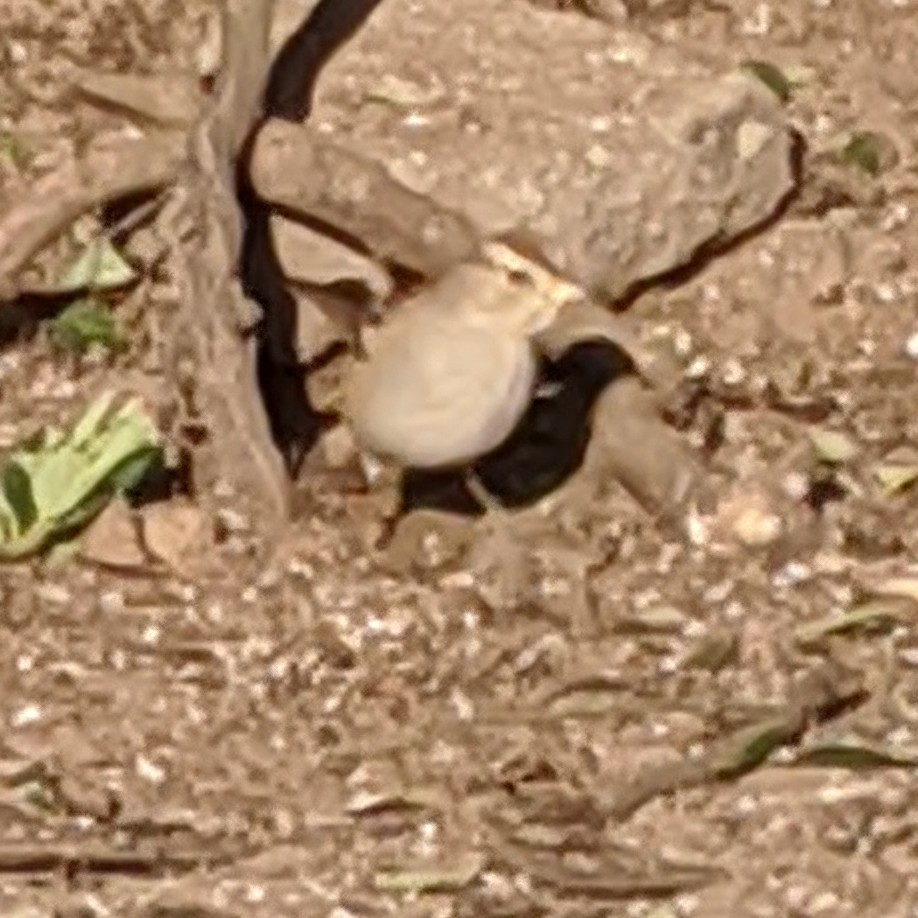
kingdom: Animalia
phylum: Chordata
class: Aves
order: Passeriformes
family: Passerellidae
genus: Zonotrichia
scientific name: Zonotrichia leucophrys
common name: White-crowned sparrow
